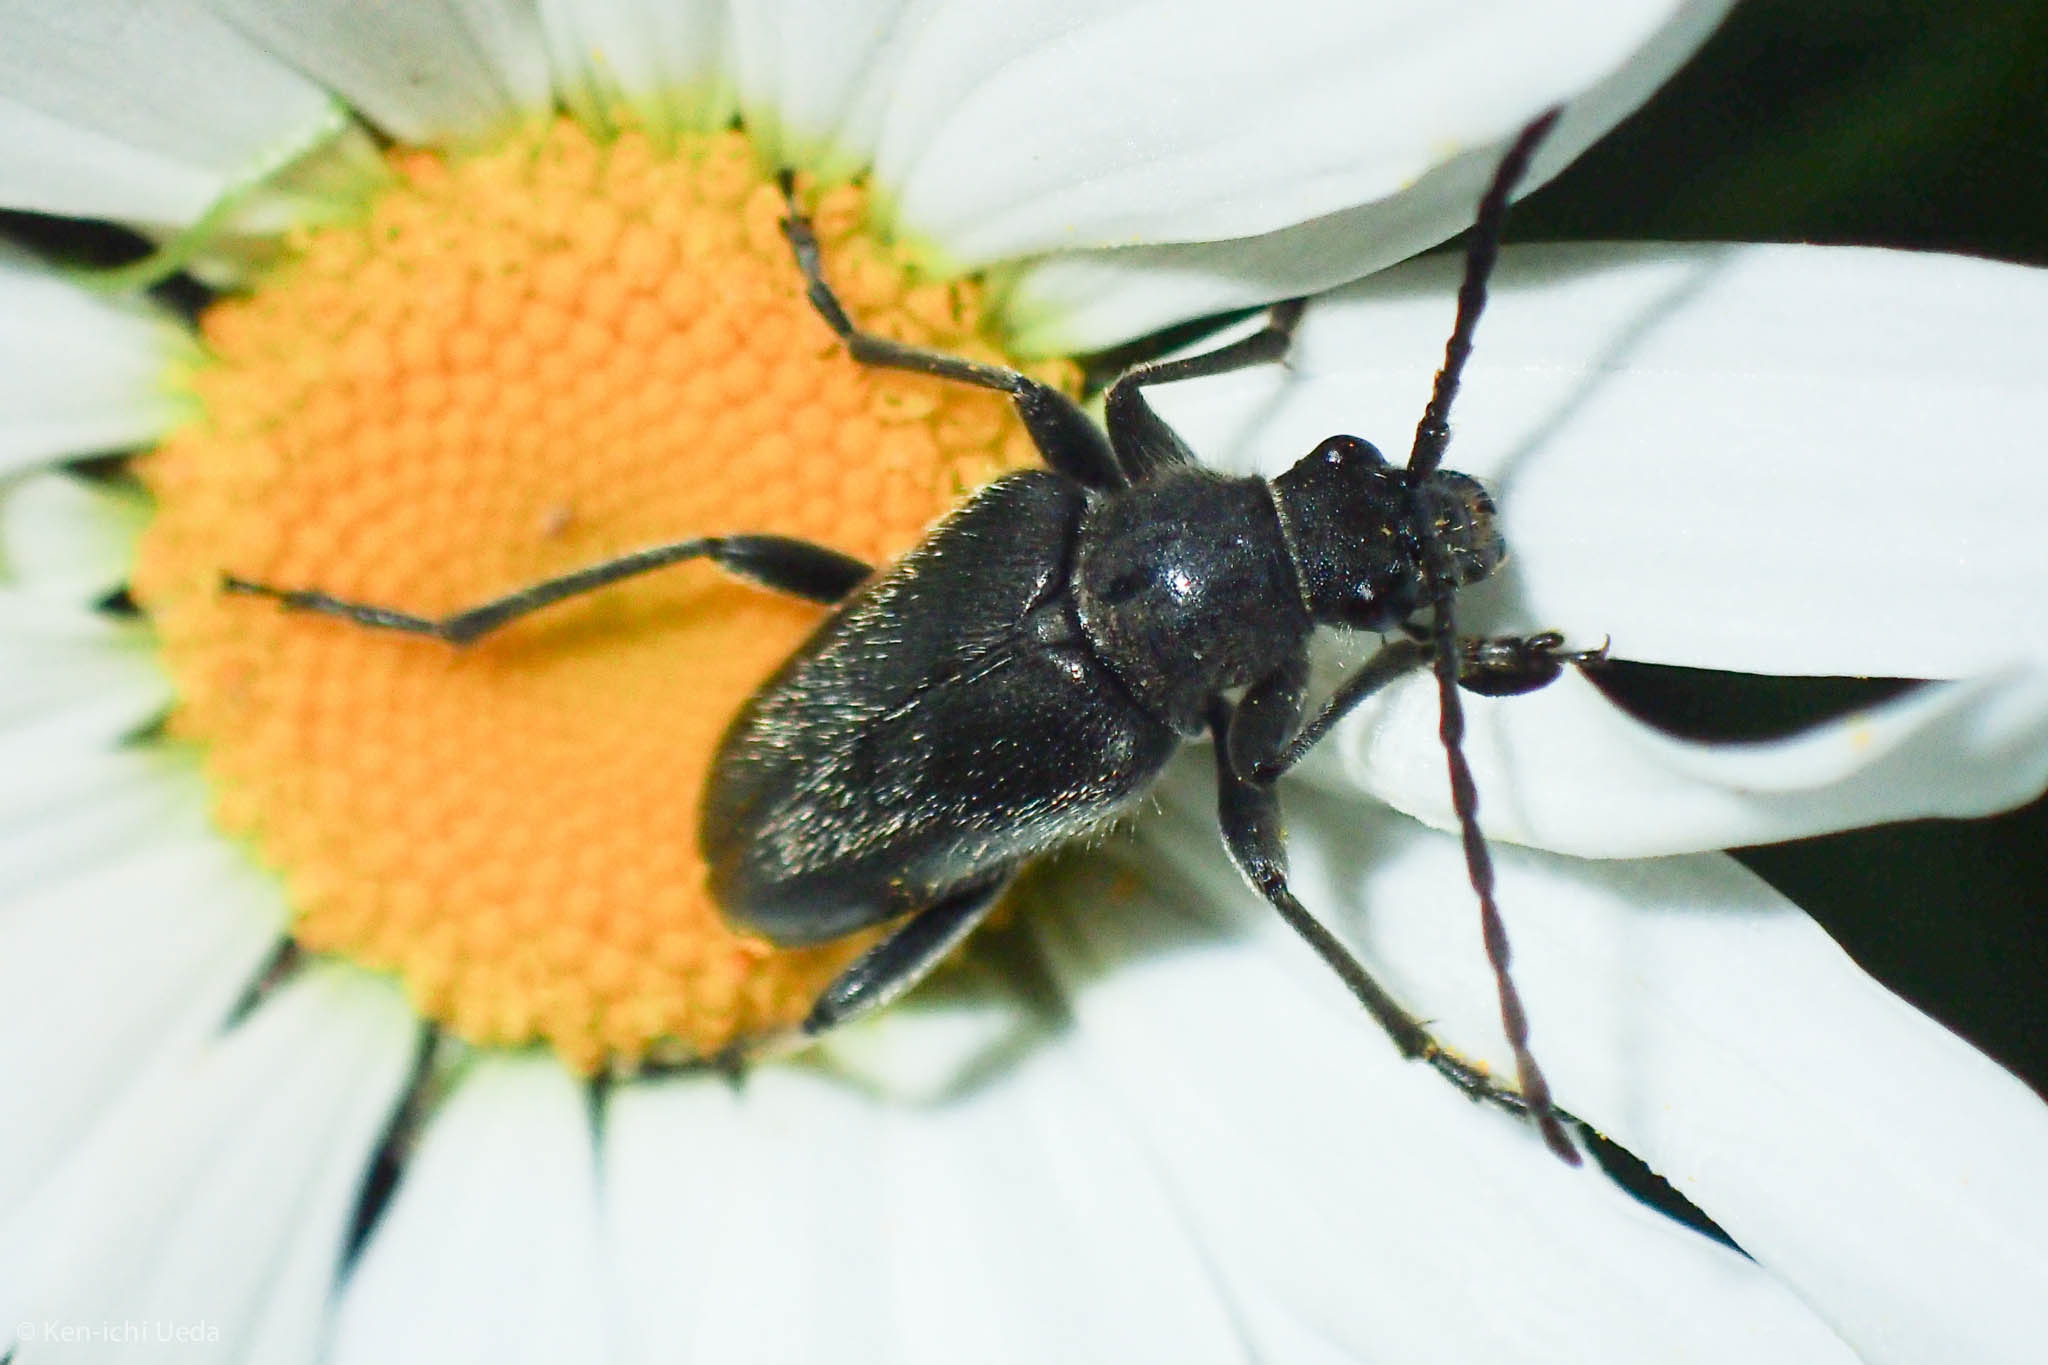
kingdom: Animalia
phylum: Arthropoda
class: Insecta
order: Coleoptera
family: Cerambycidae
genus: Brachysomida
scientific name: Brachysomida californica
